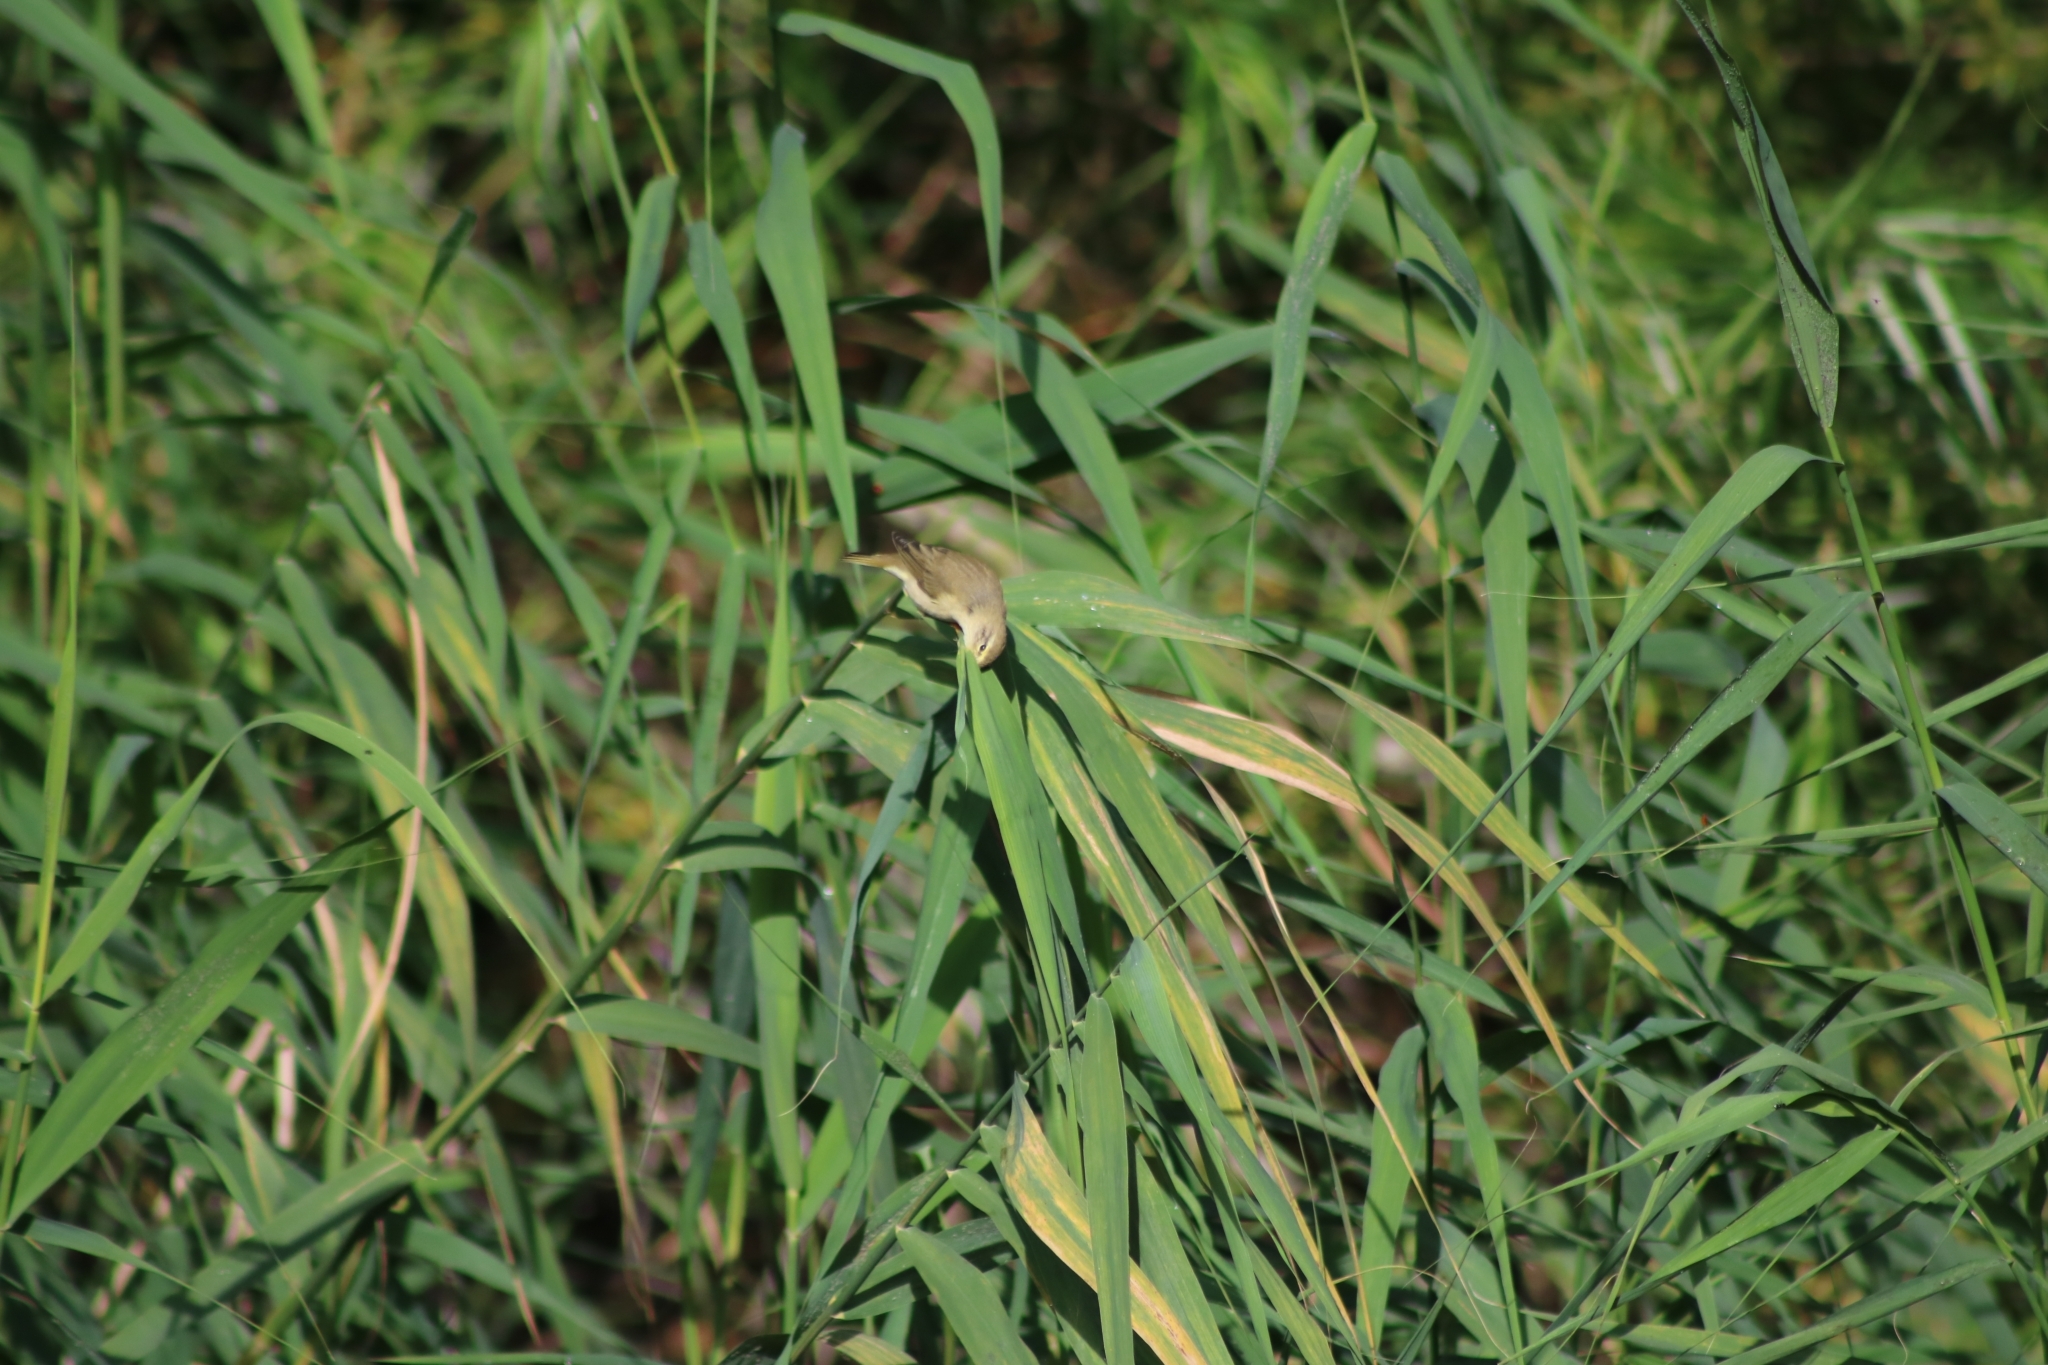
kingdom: Animalia
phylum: Chordata
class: Aves
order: Passeriformes
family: Phylloscopidae
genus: Phylloscopus
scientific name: Phylloscopus trochilus
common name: Willow warbler
